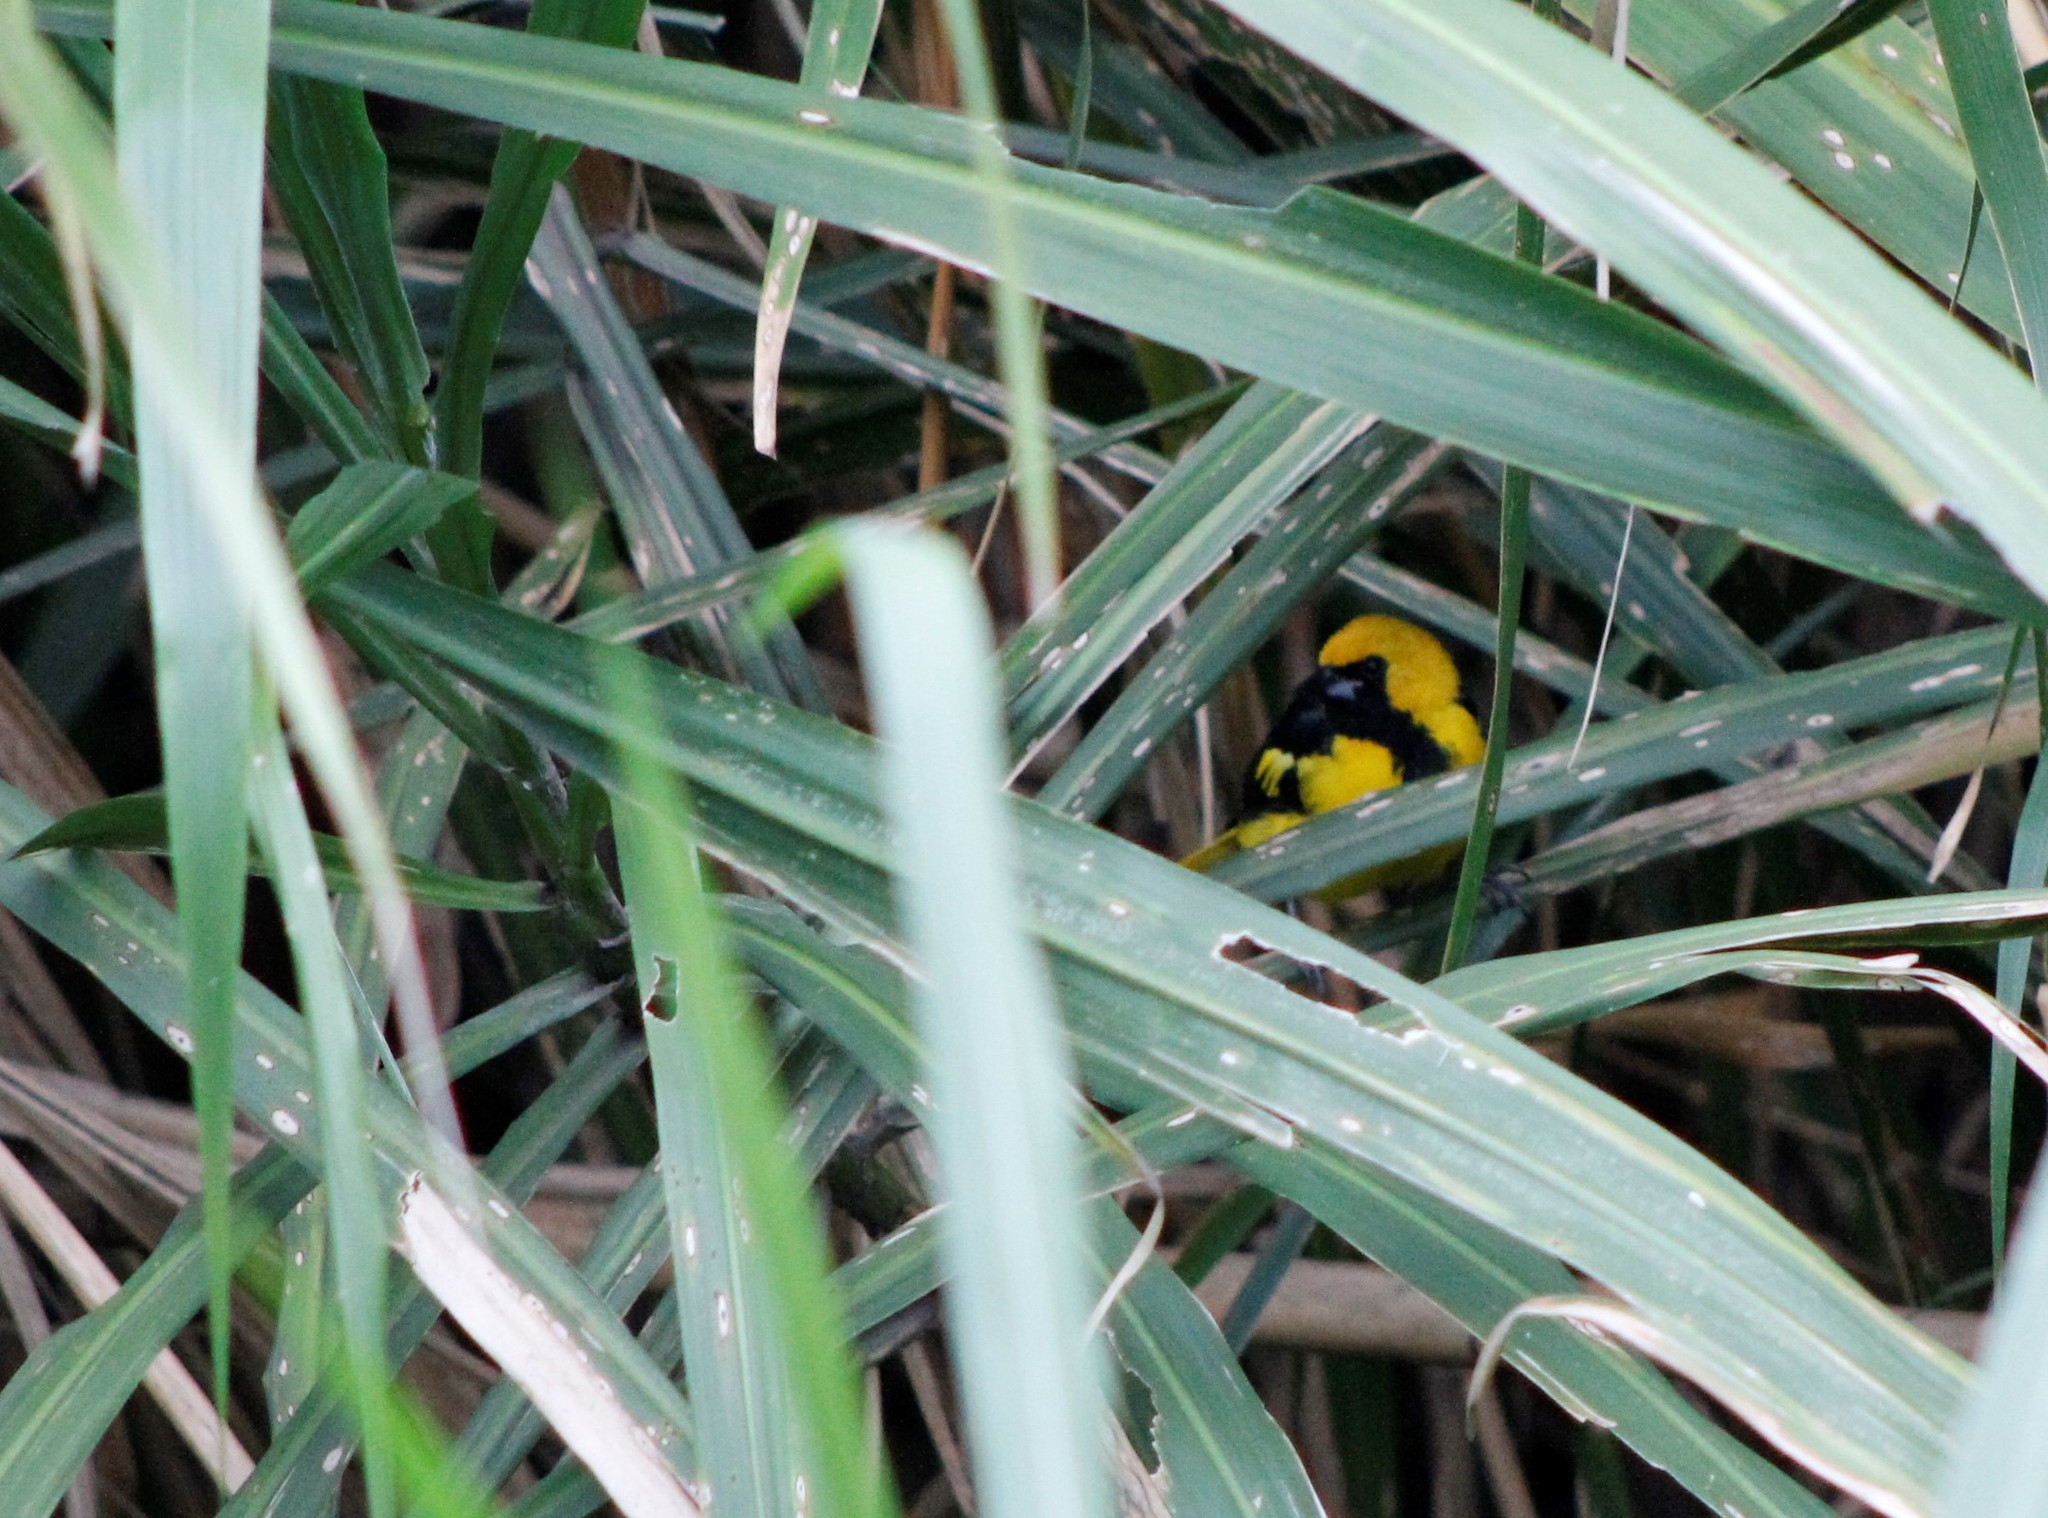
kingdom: Animalia
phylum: Chordata
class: Aves
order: Passeriformes
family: Icteridae
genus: Icterus
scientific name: Icterus mesomelas
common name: Yellow-tailed oriole
